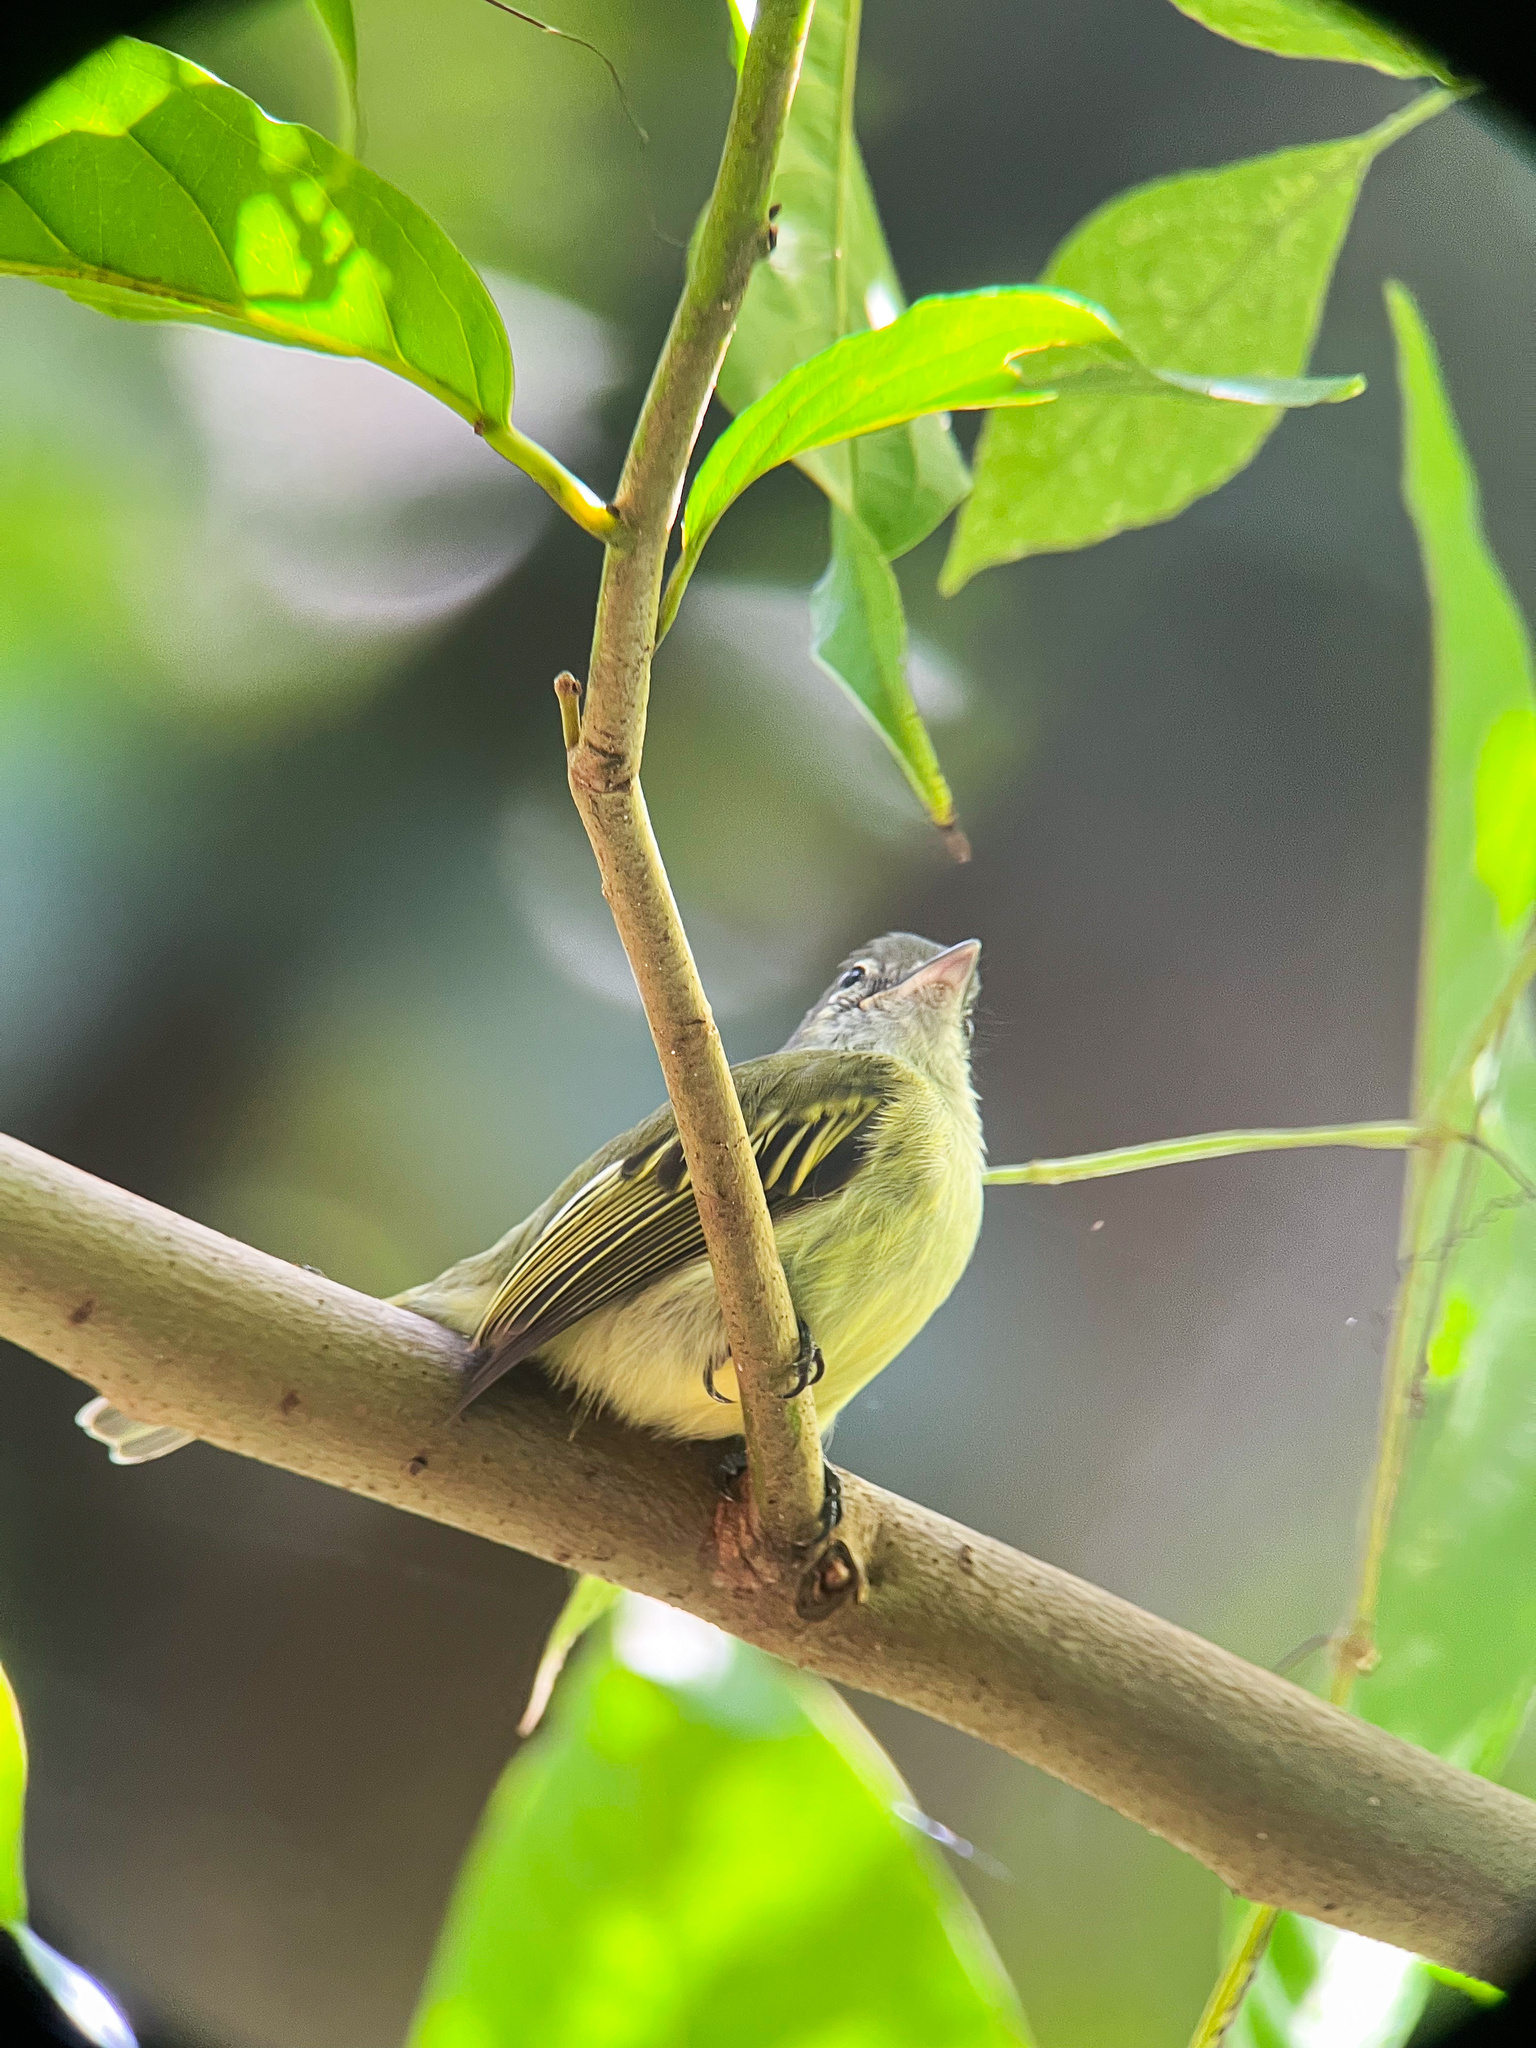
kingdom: Animalia
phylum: Chordata
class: Aves
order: Passeriformes
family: Tyrannidae
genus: Tolmomyias
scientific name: Tolmomyias assimilis
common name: Yellow-margined flycatcher
